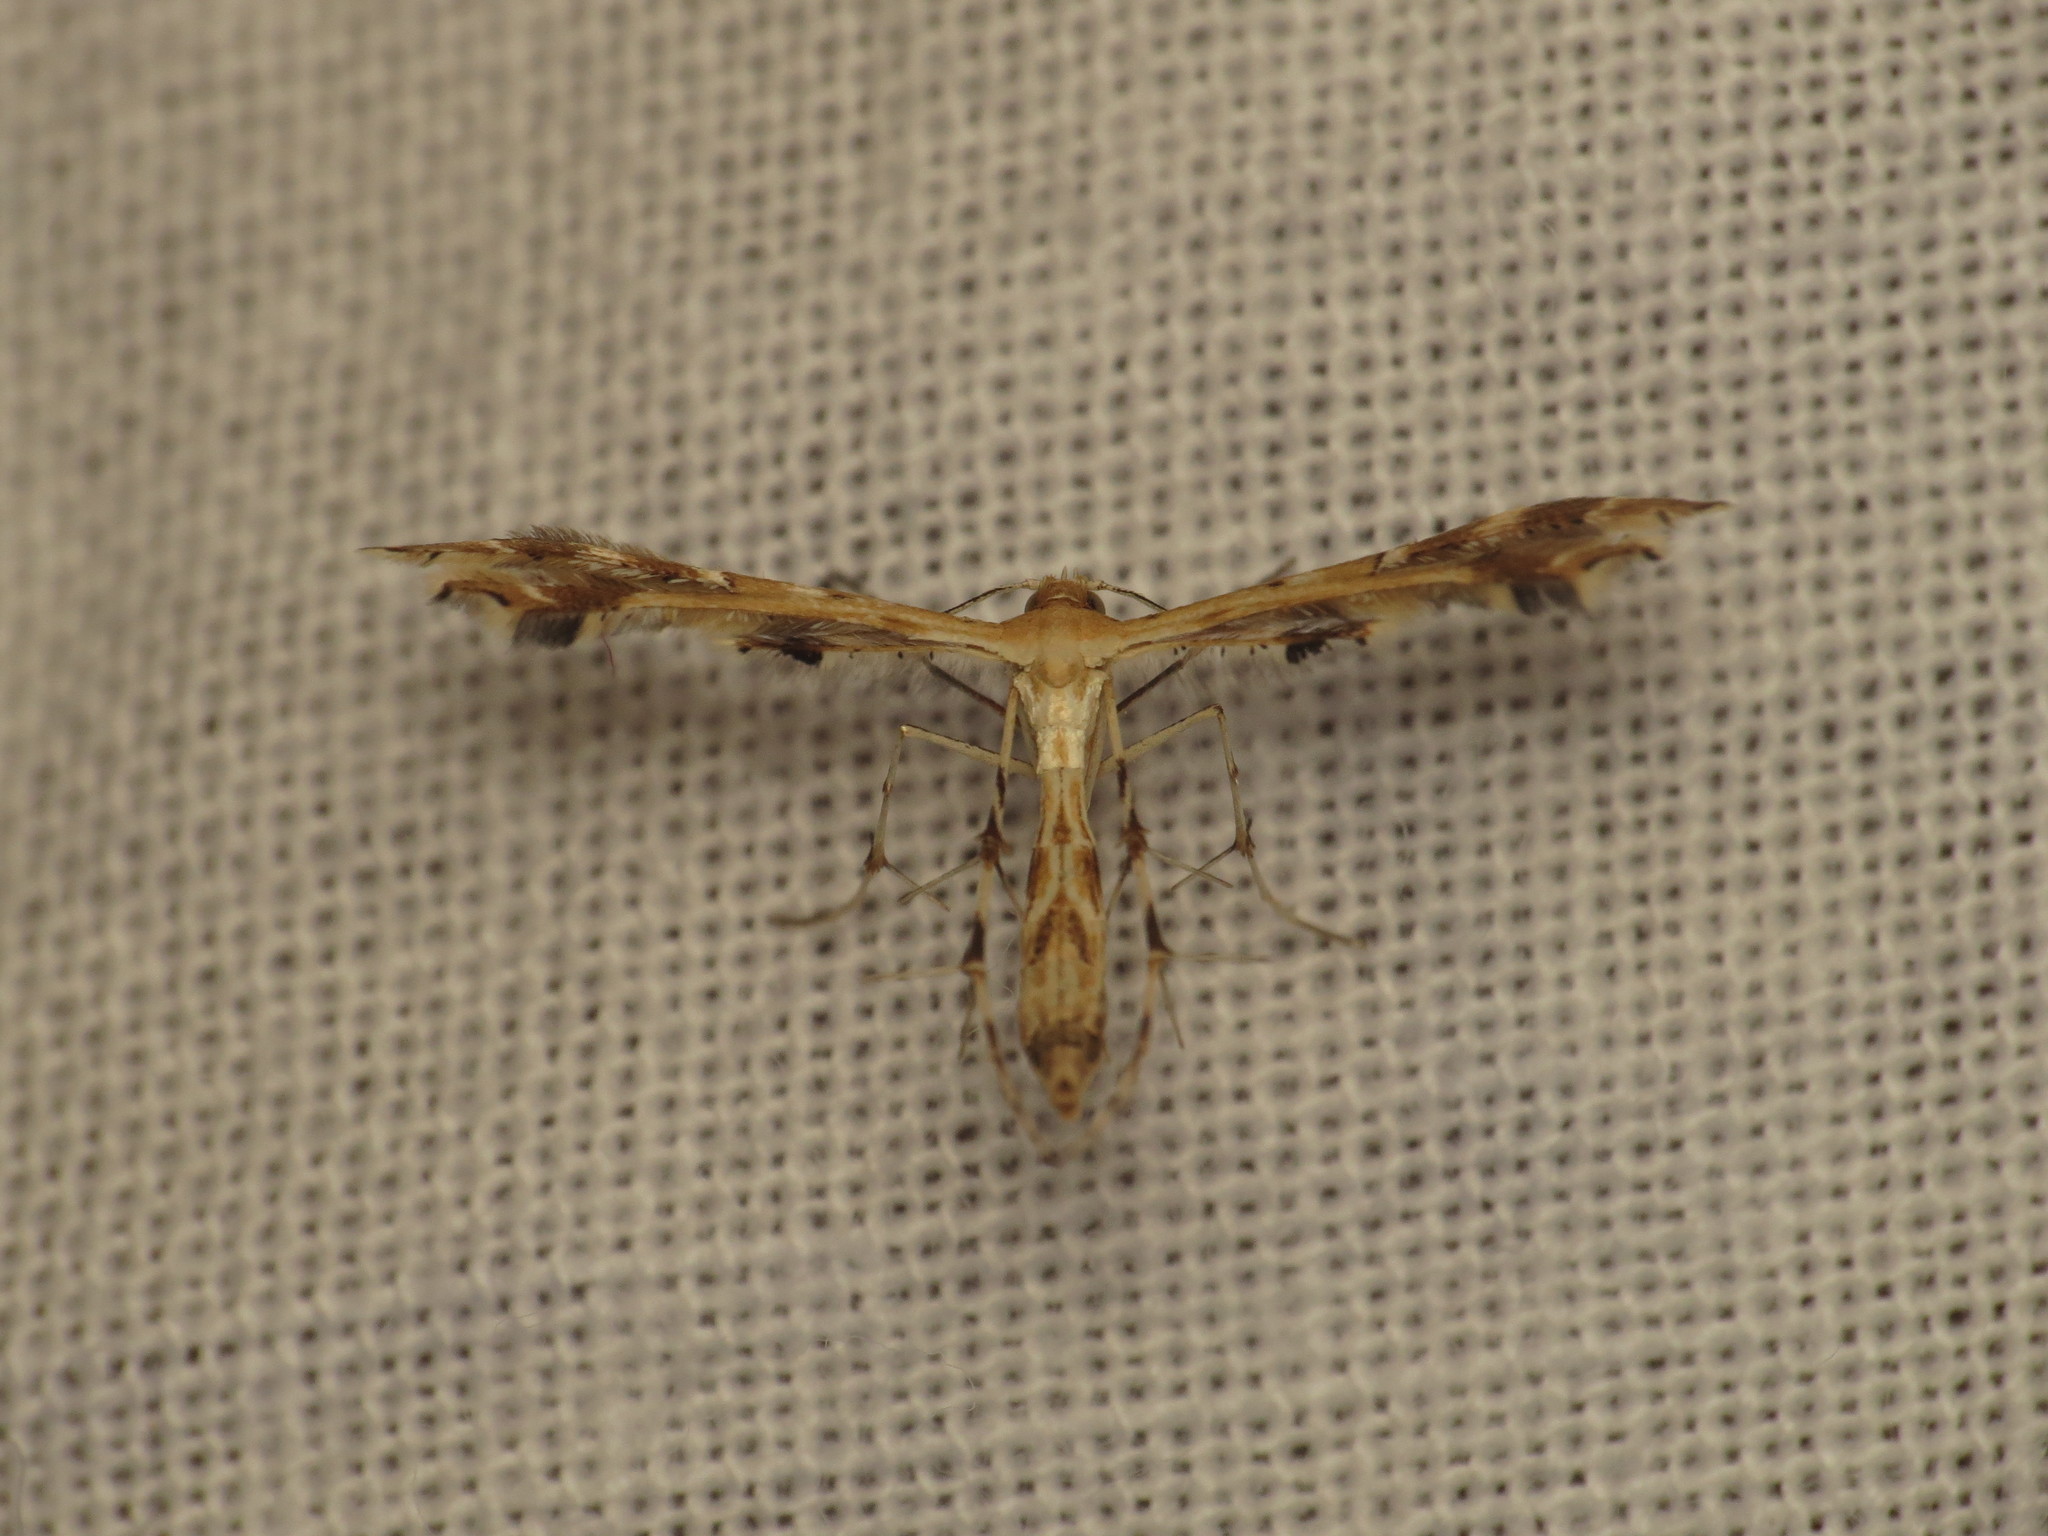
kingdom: Animalia
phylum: Arthropoda
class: Insecta
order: Lepidoptera
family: Pterophoridae
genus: Sphenarches
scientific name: Sphenarches anisodactylus
